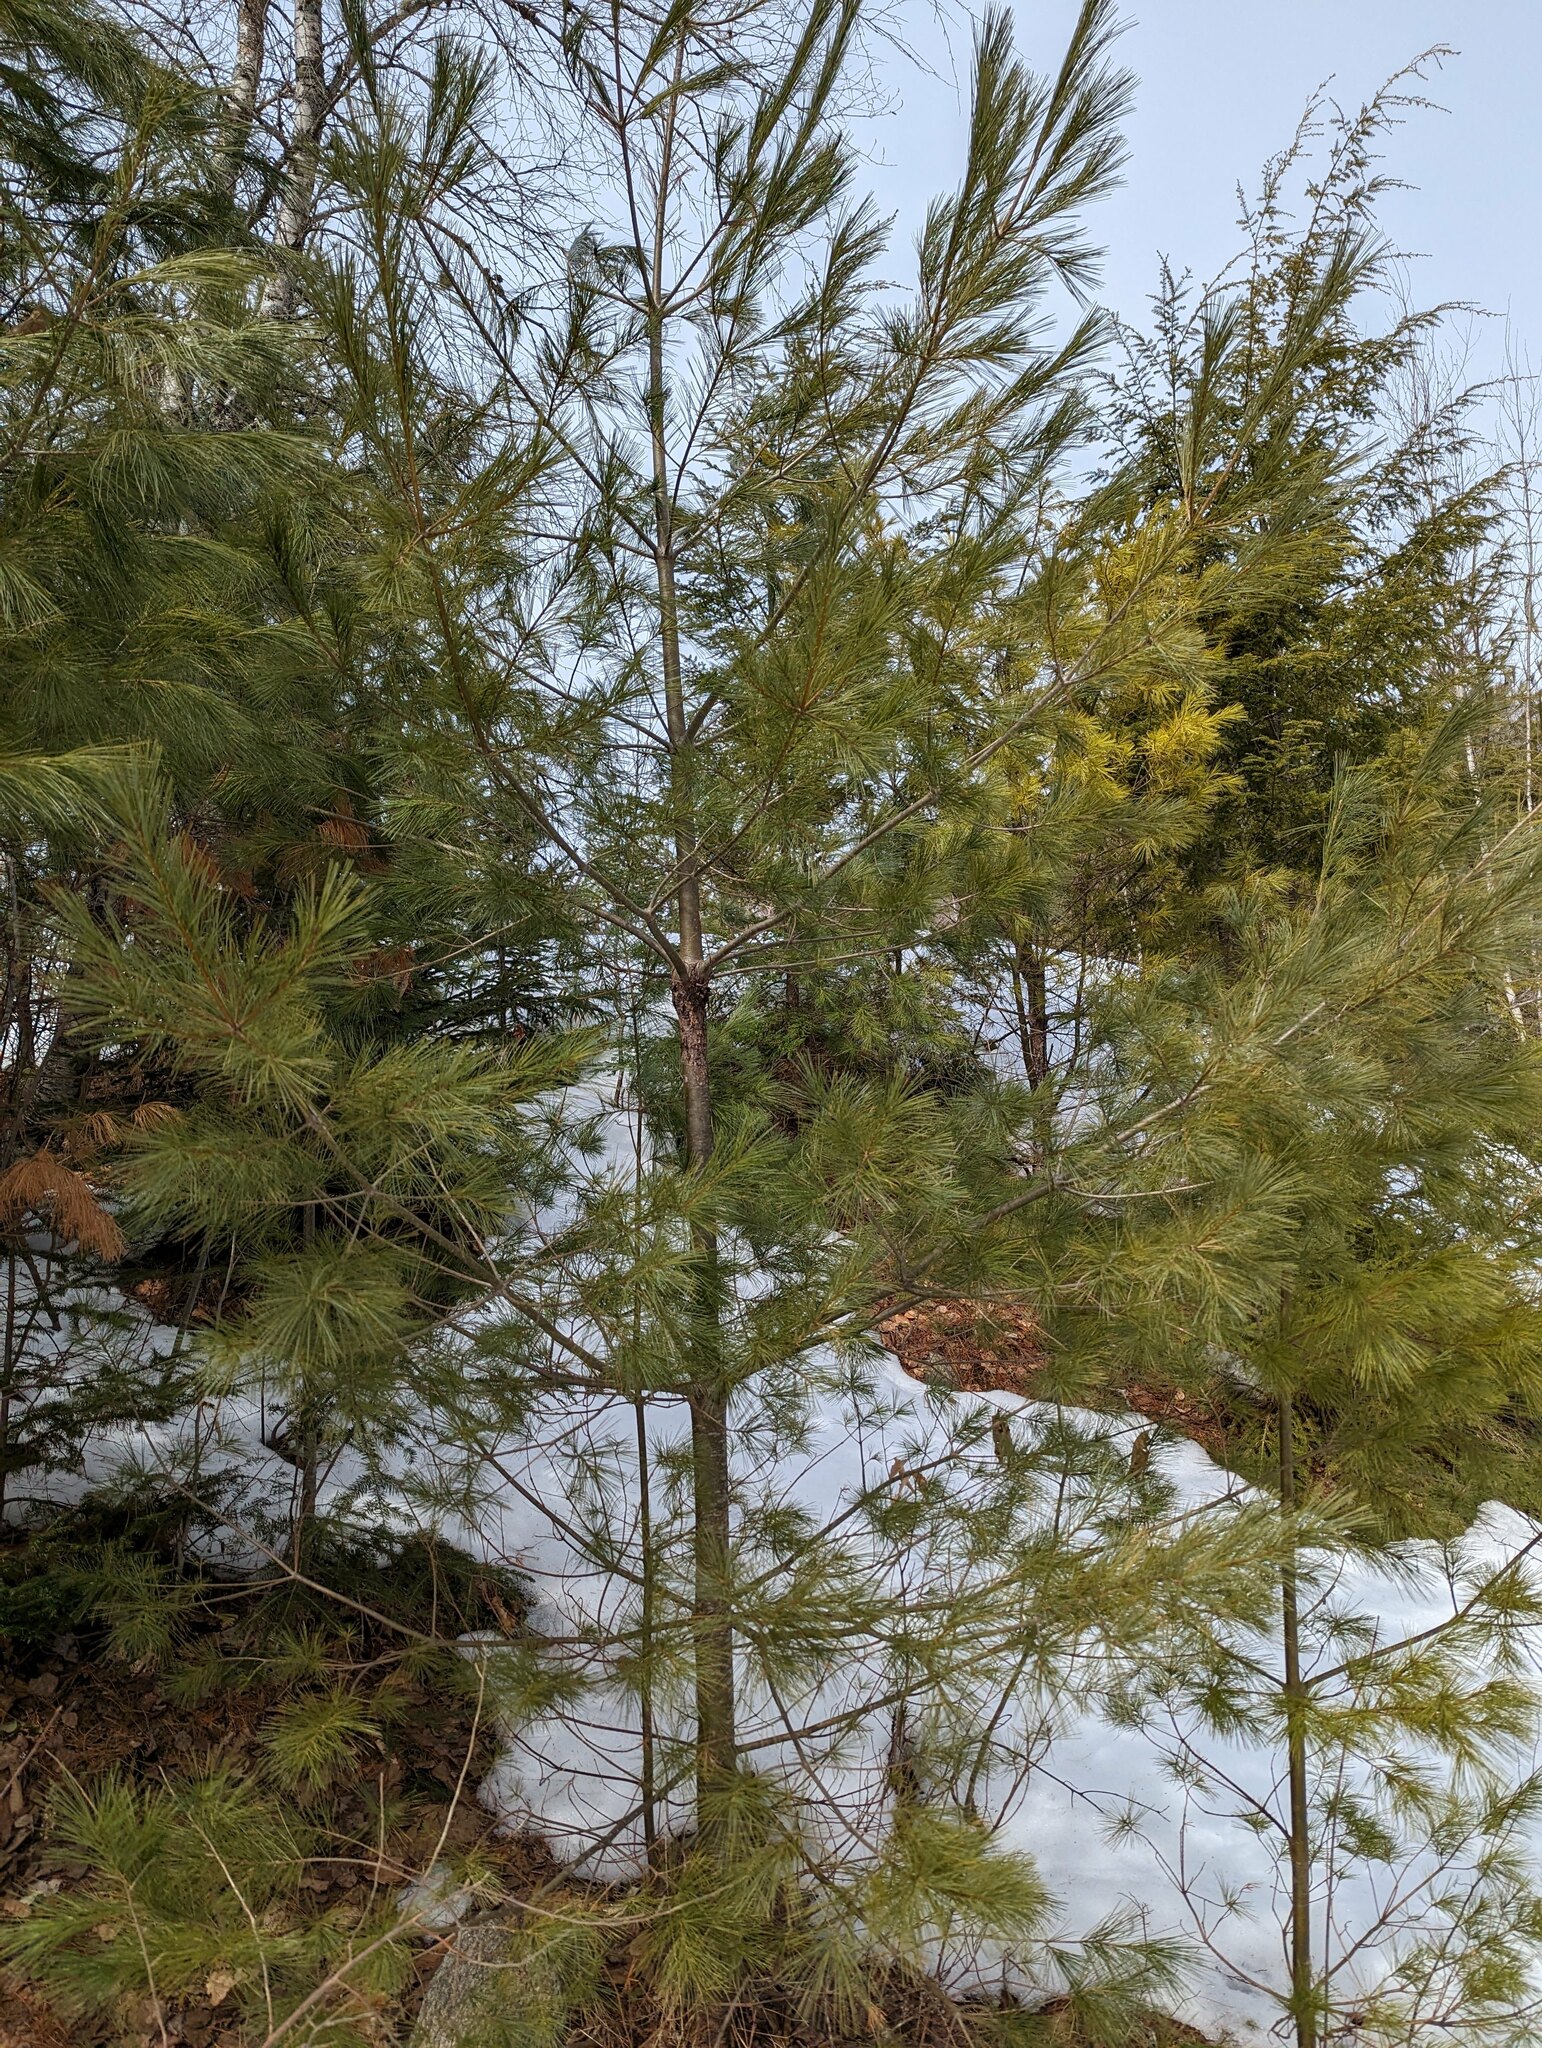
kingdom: Plantae
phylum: Tracheophyta
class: Pinopsida
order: Pinales
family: Pinaceae
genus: Pinus
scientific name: Pinus strobus
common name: Weymouth pine
